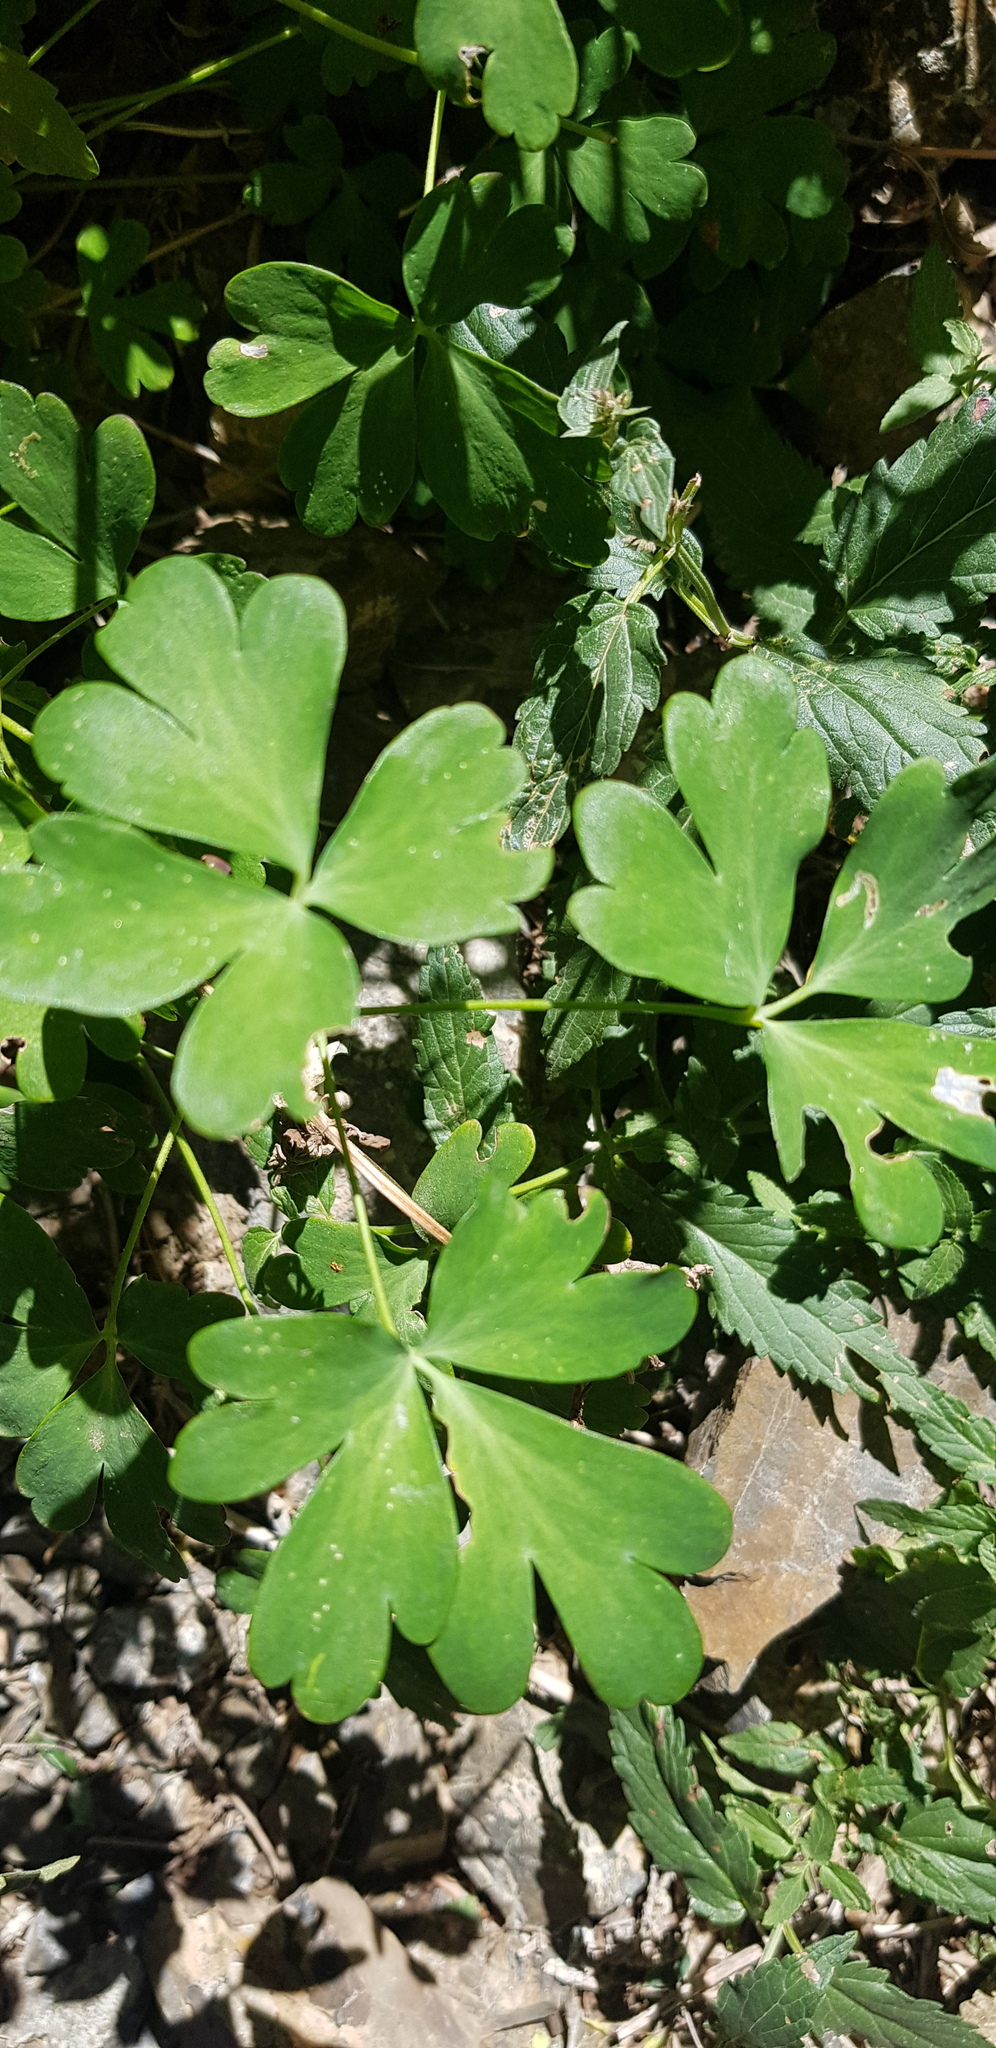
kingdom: Plantae
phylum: Tracheophyta
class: Magnoliopsida
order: Ranunculales
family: Ranunculaceae
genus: Aquilegia
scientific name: Aquilegia viridiflora
